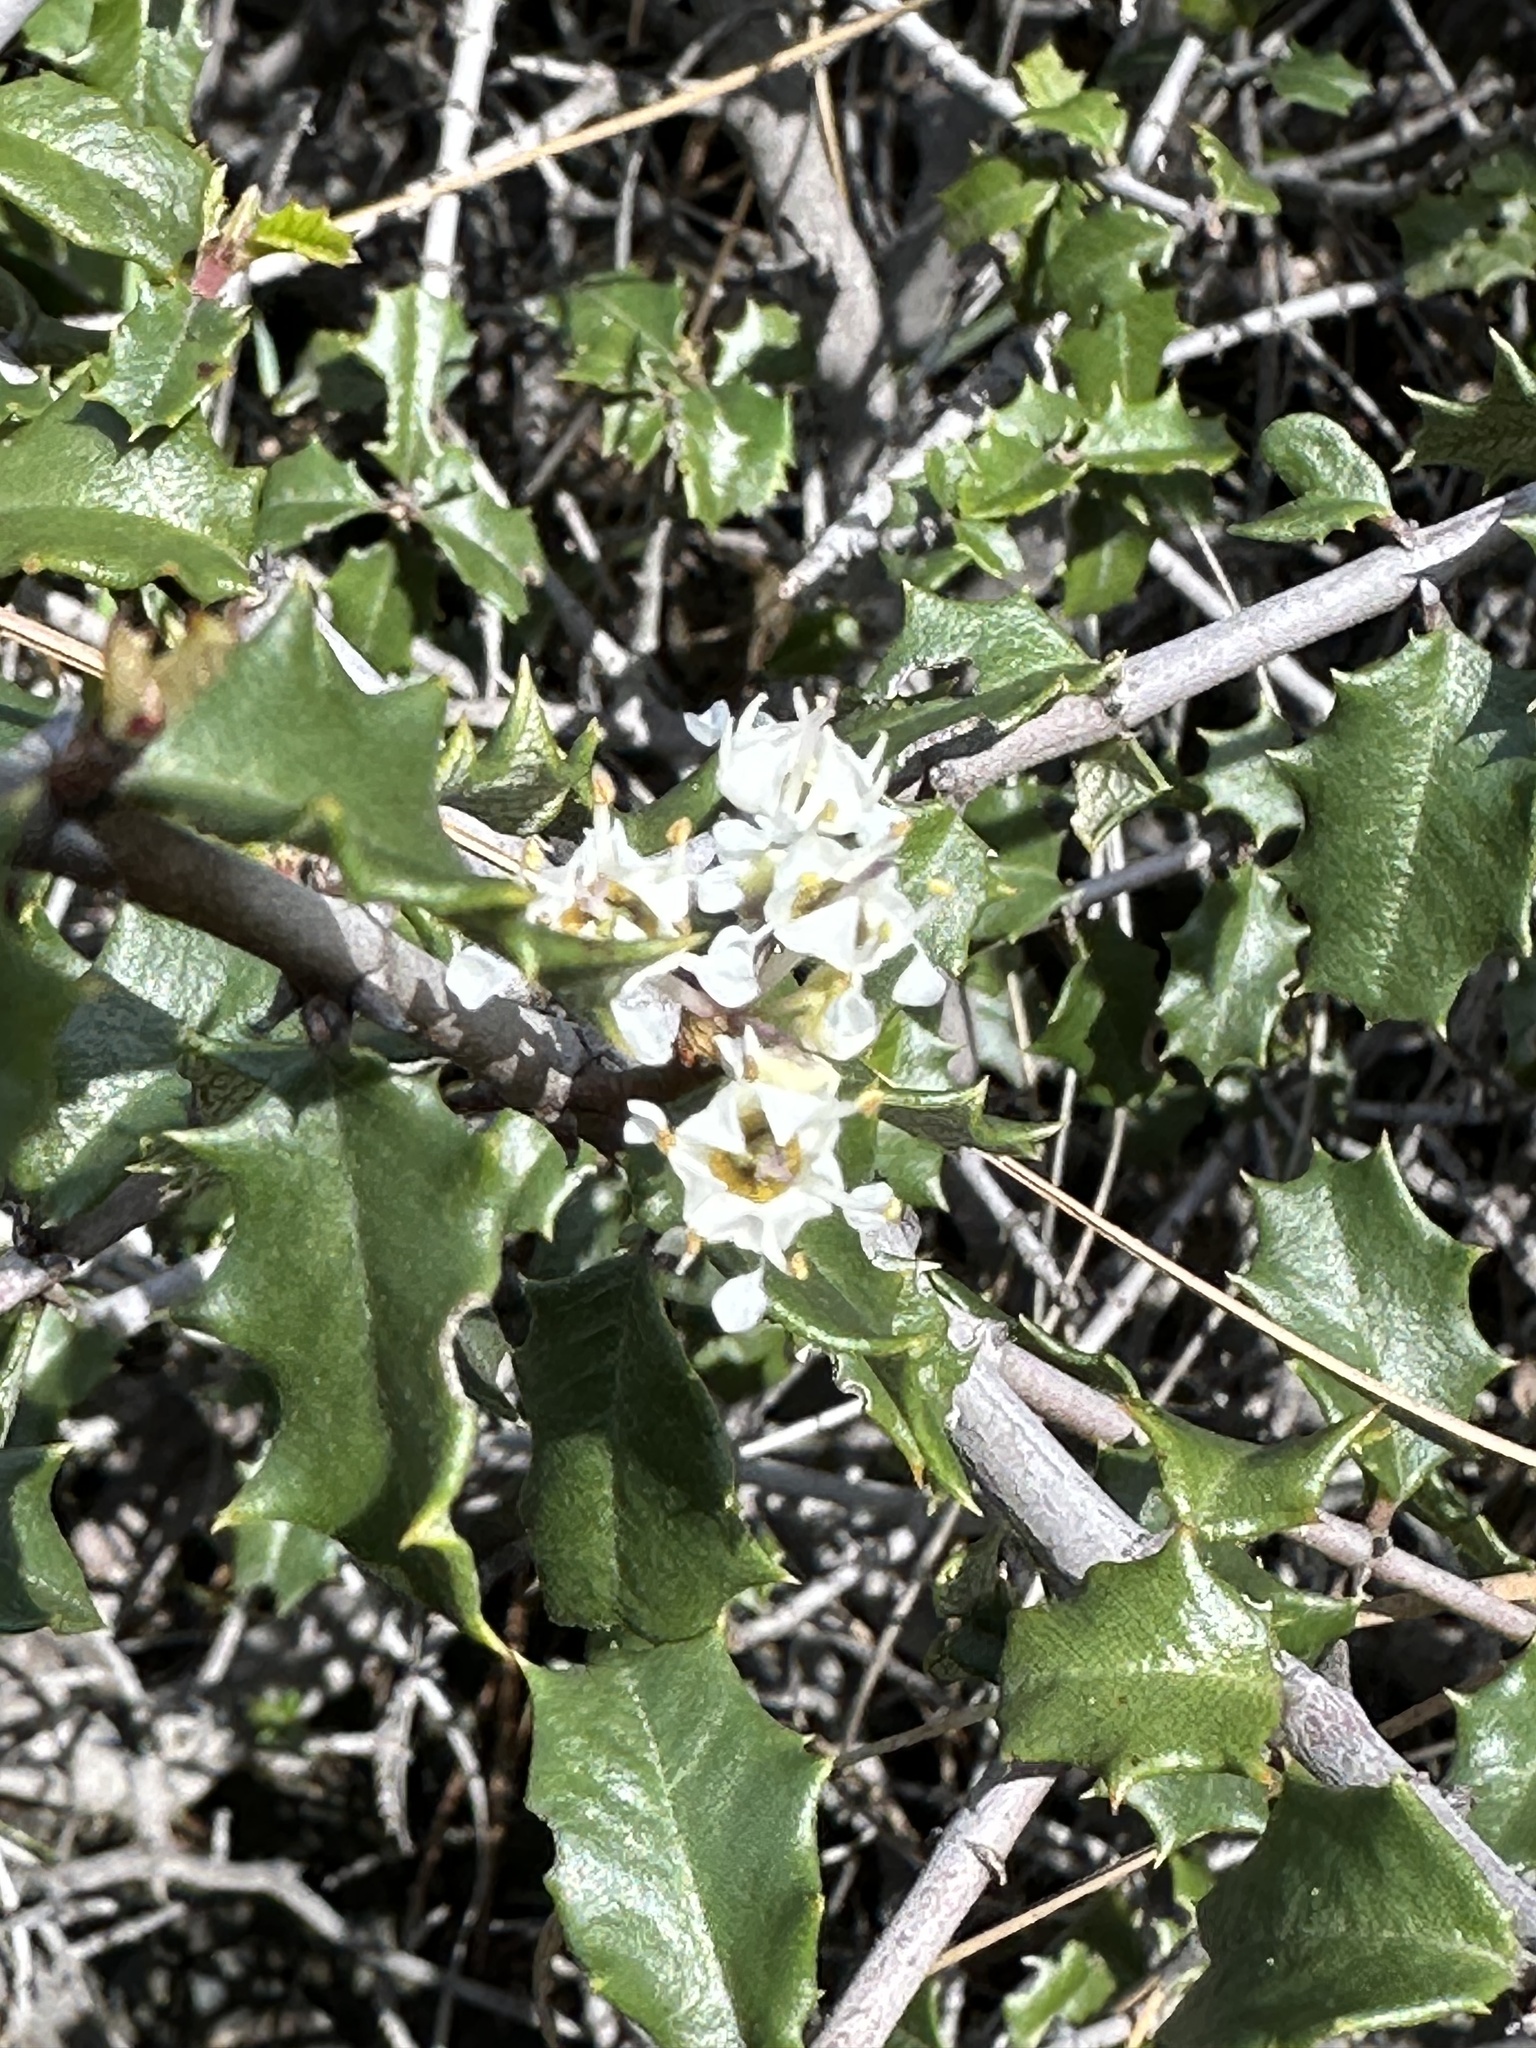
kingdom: Plantae
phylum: Tracheophyta
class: Magnoliopsida
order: Rosales
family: Rhamnaceae
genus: Ceanothus
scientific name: Ceanothus jepsonii
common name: Muskbrush
